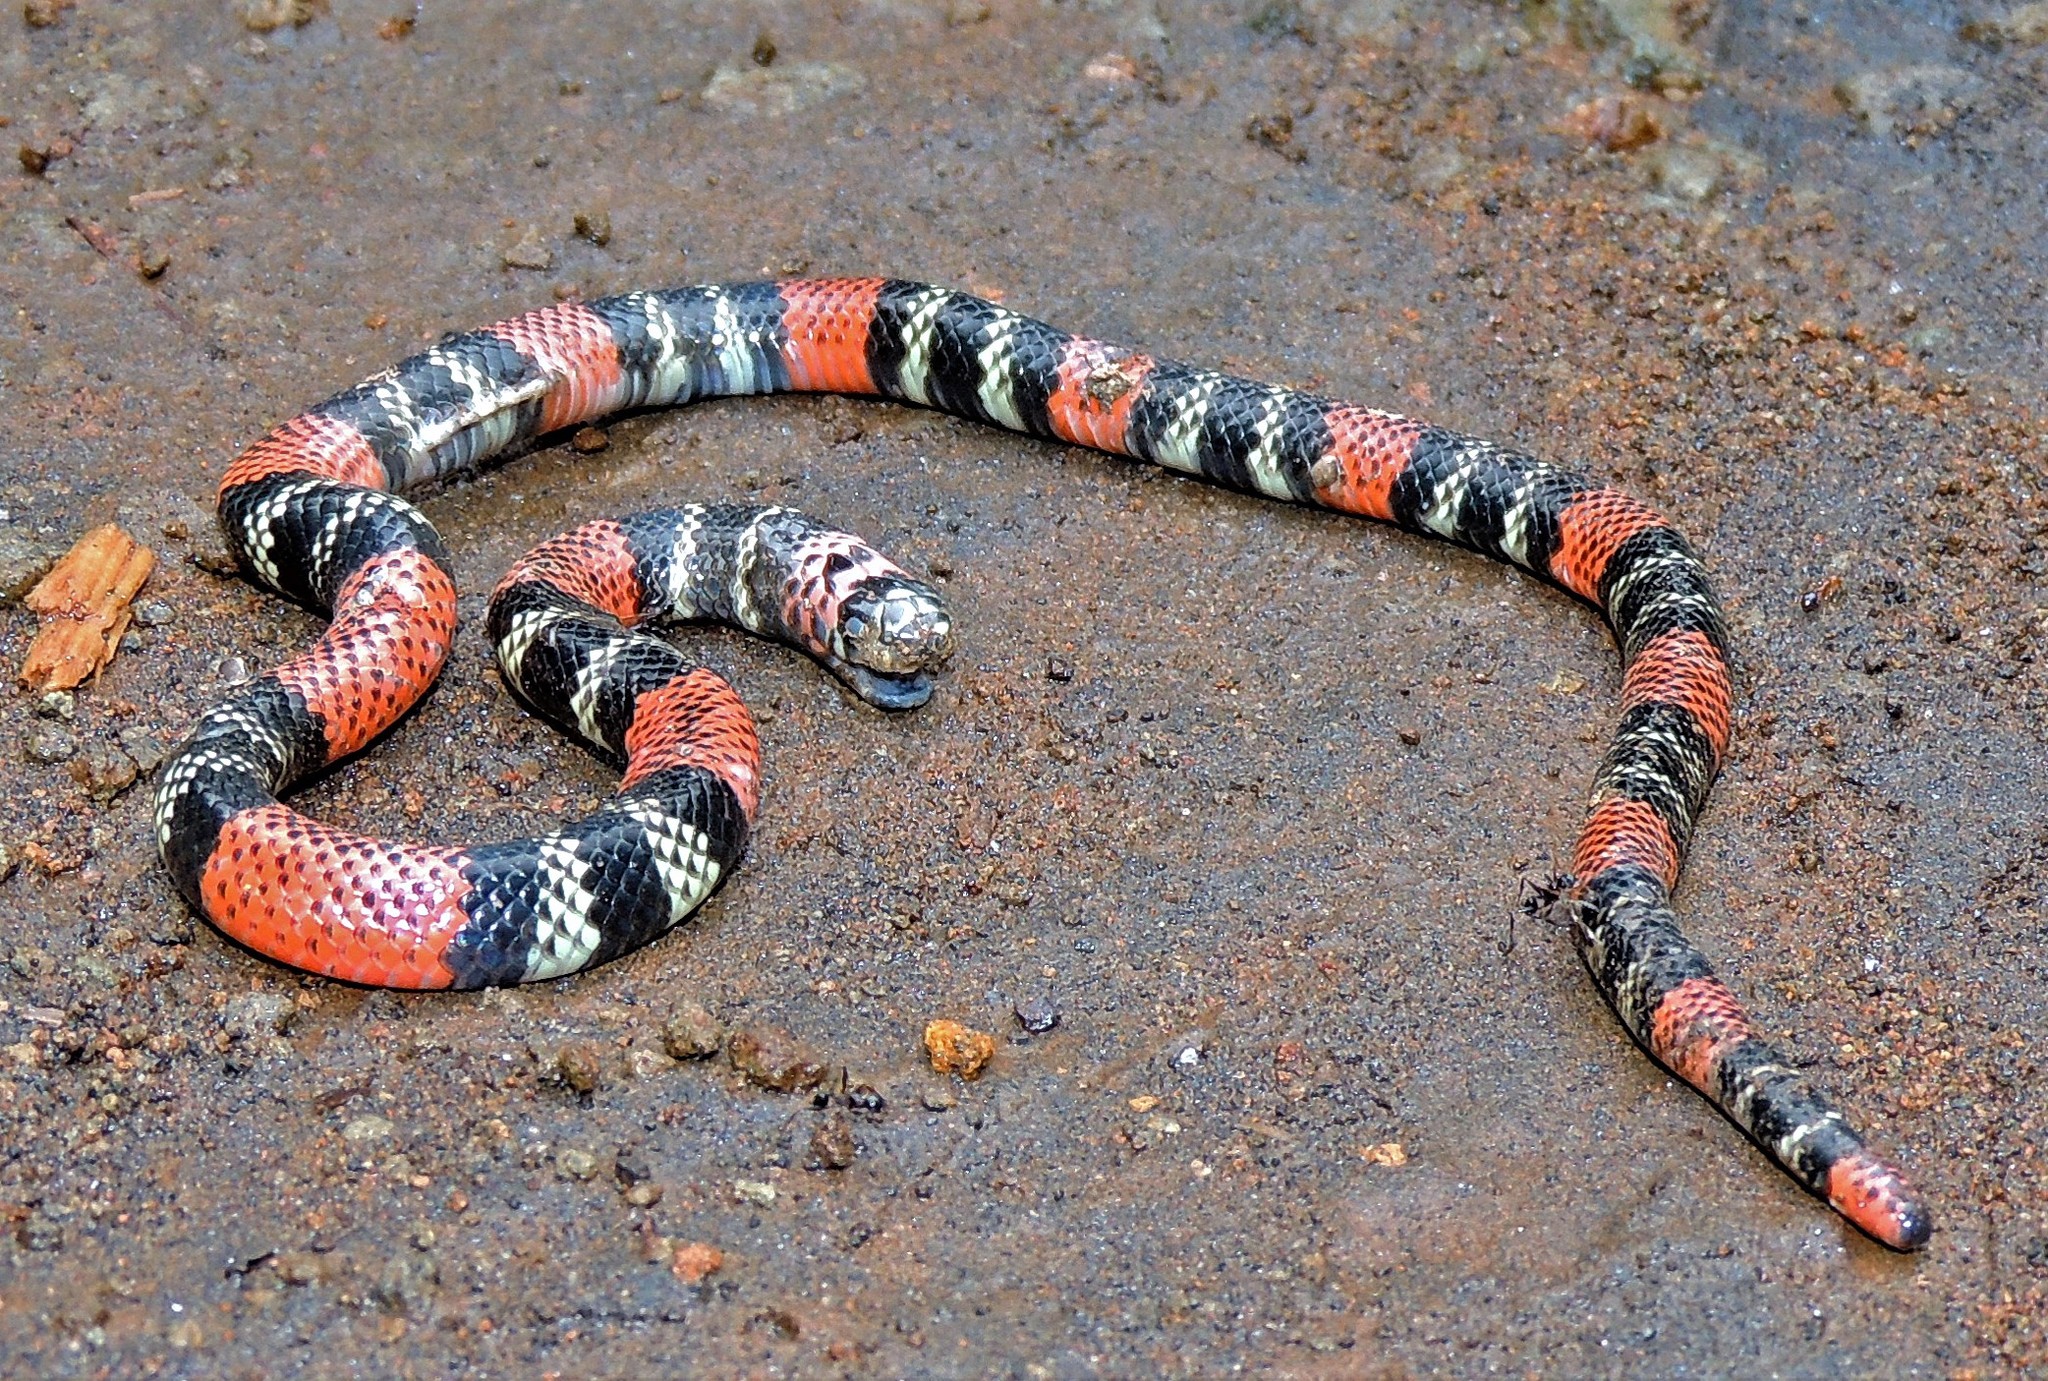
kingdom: Animalia
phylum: Chordata
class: Squamata
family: Elapidae
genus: Micrurus
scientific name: Micrurus altirostris
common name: Uruguayan coral snake
